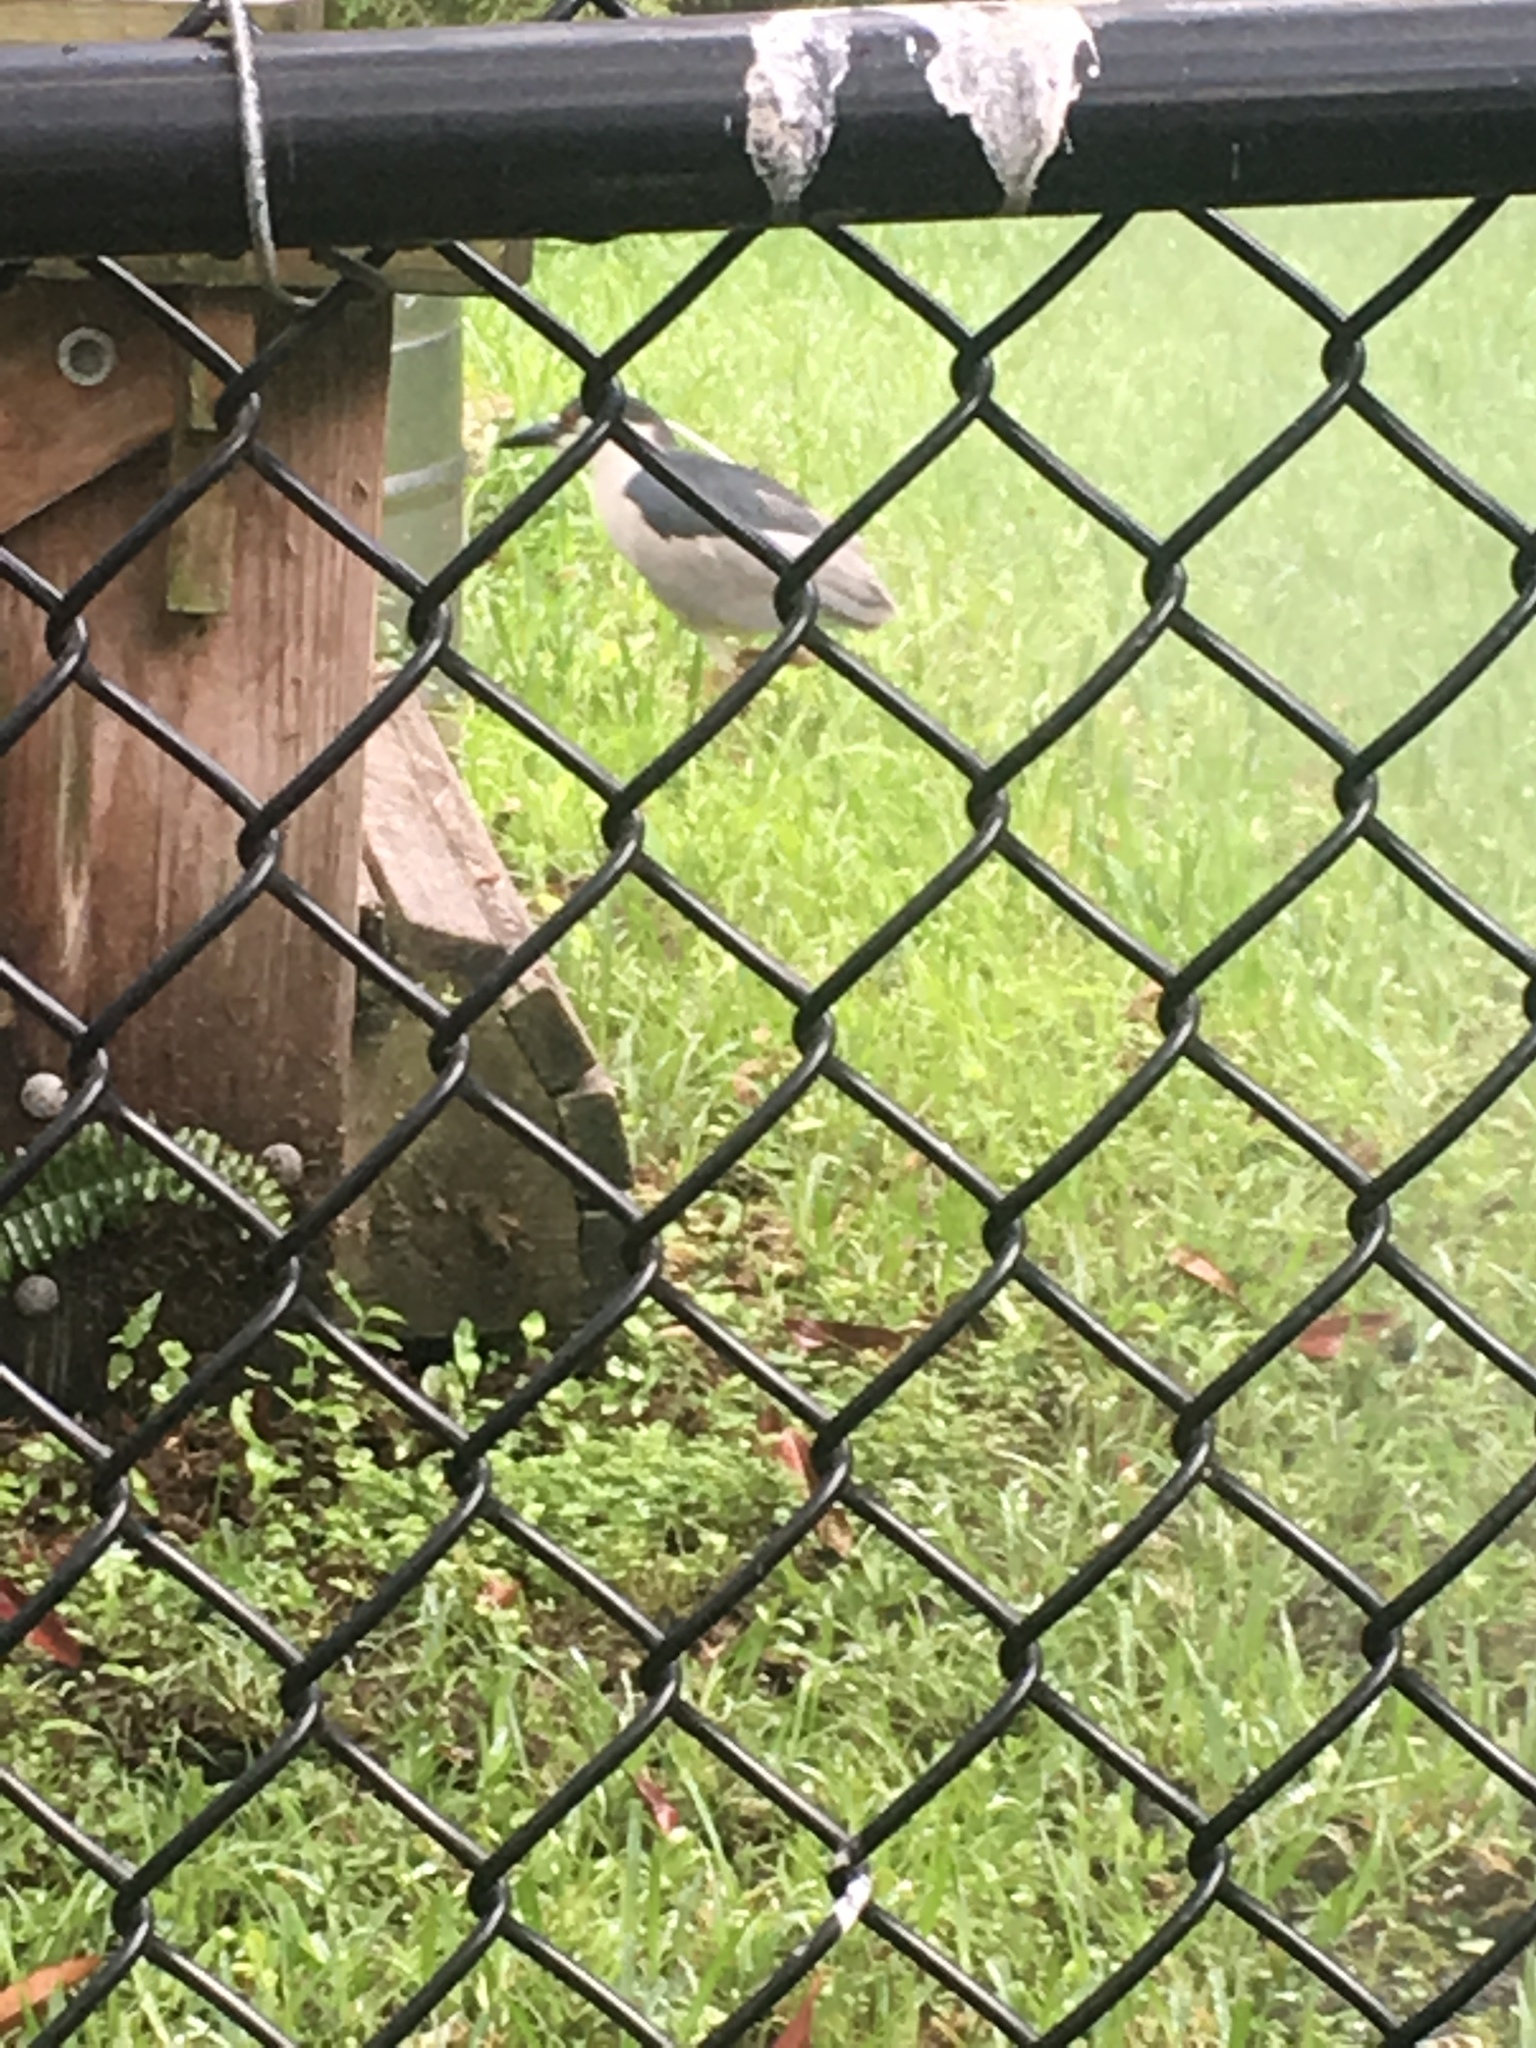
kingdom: Animalia
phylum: Chordata
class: Aves
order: Pelecaniformes
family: Ardeidae
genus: Nycticorax
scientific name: Nycticorax nycticorax
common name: Black-crowned night heron
